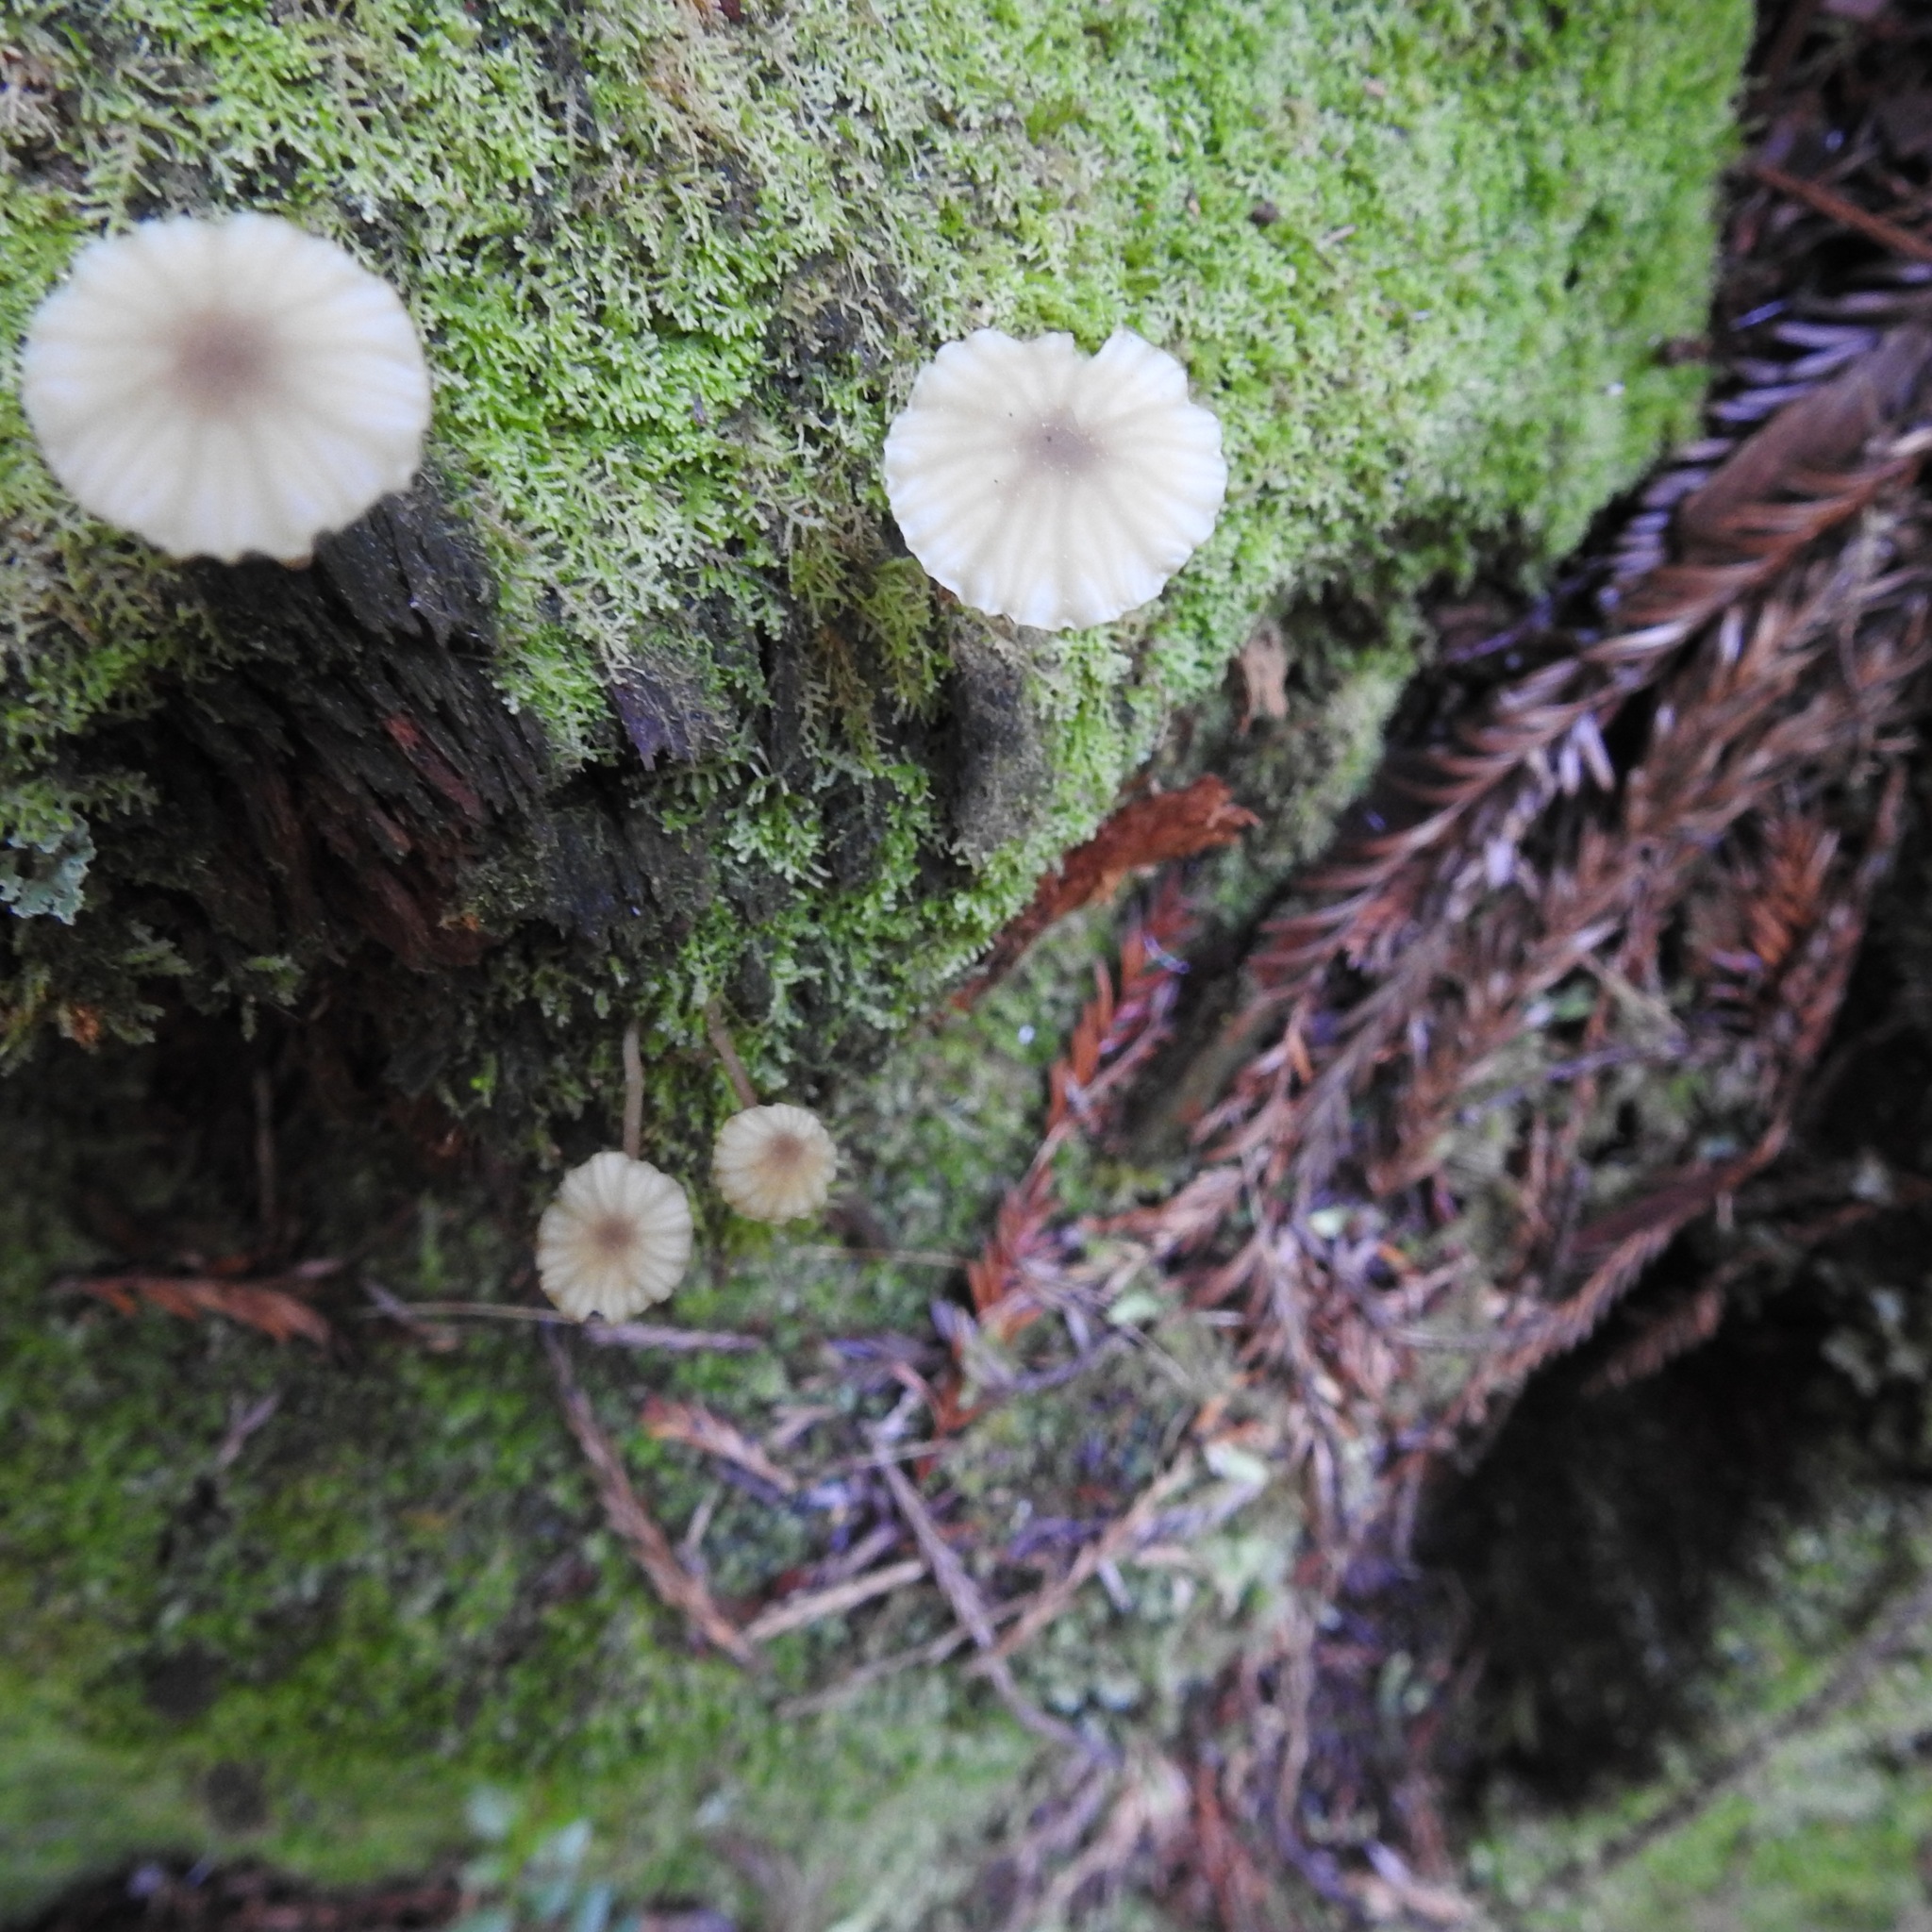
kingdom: Fungi
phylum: Basidiomycota
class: Agaricomycetes
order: Agaricales
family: Hygrophoraceae
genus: Lichenomphalia
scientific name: Lichenomphalia
